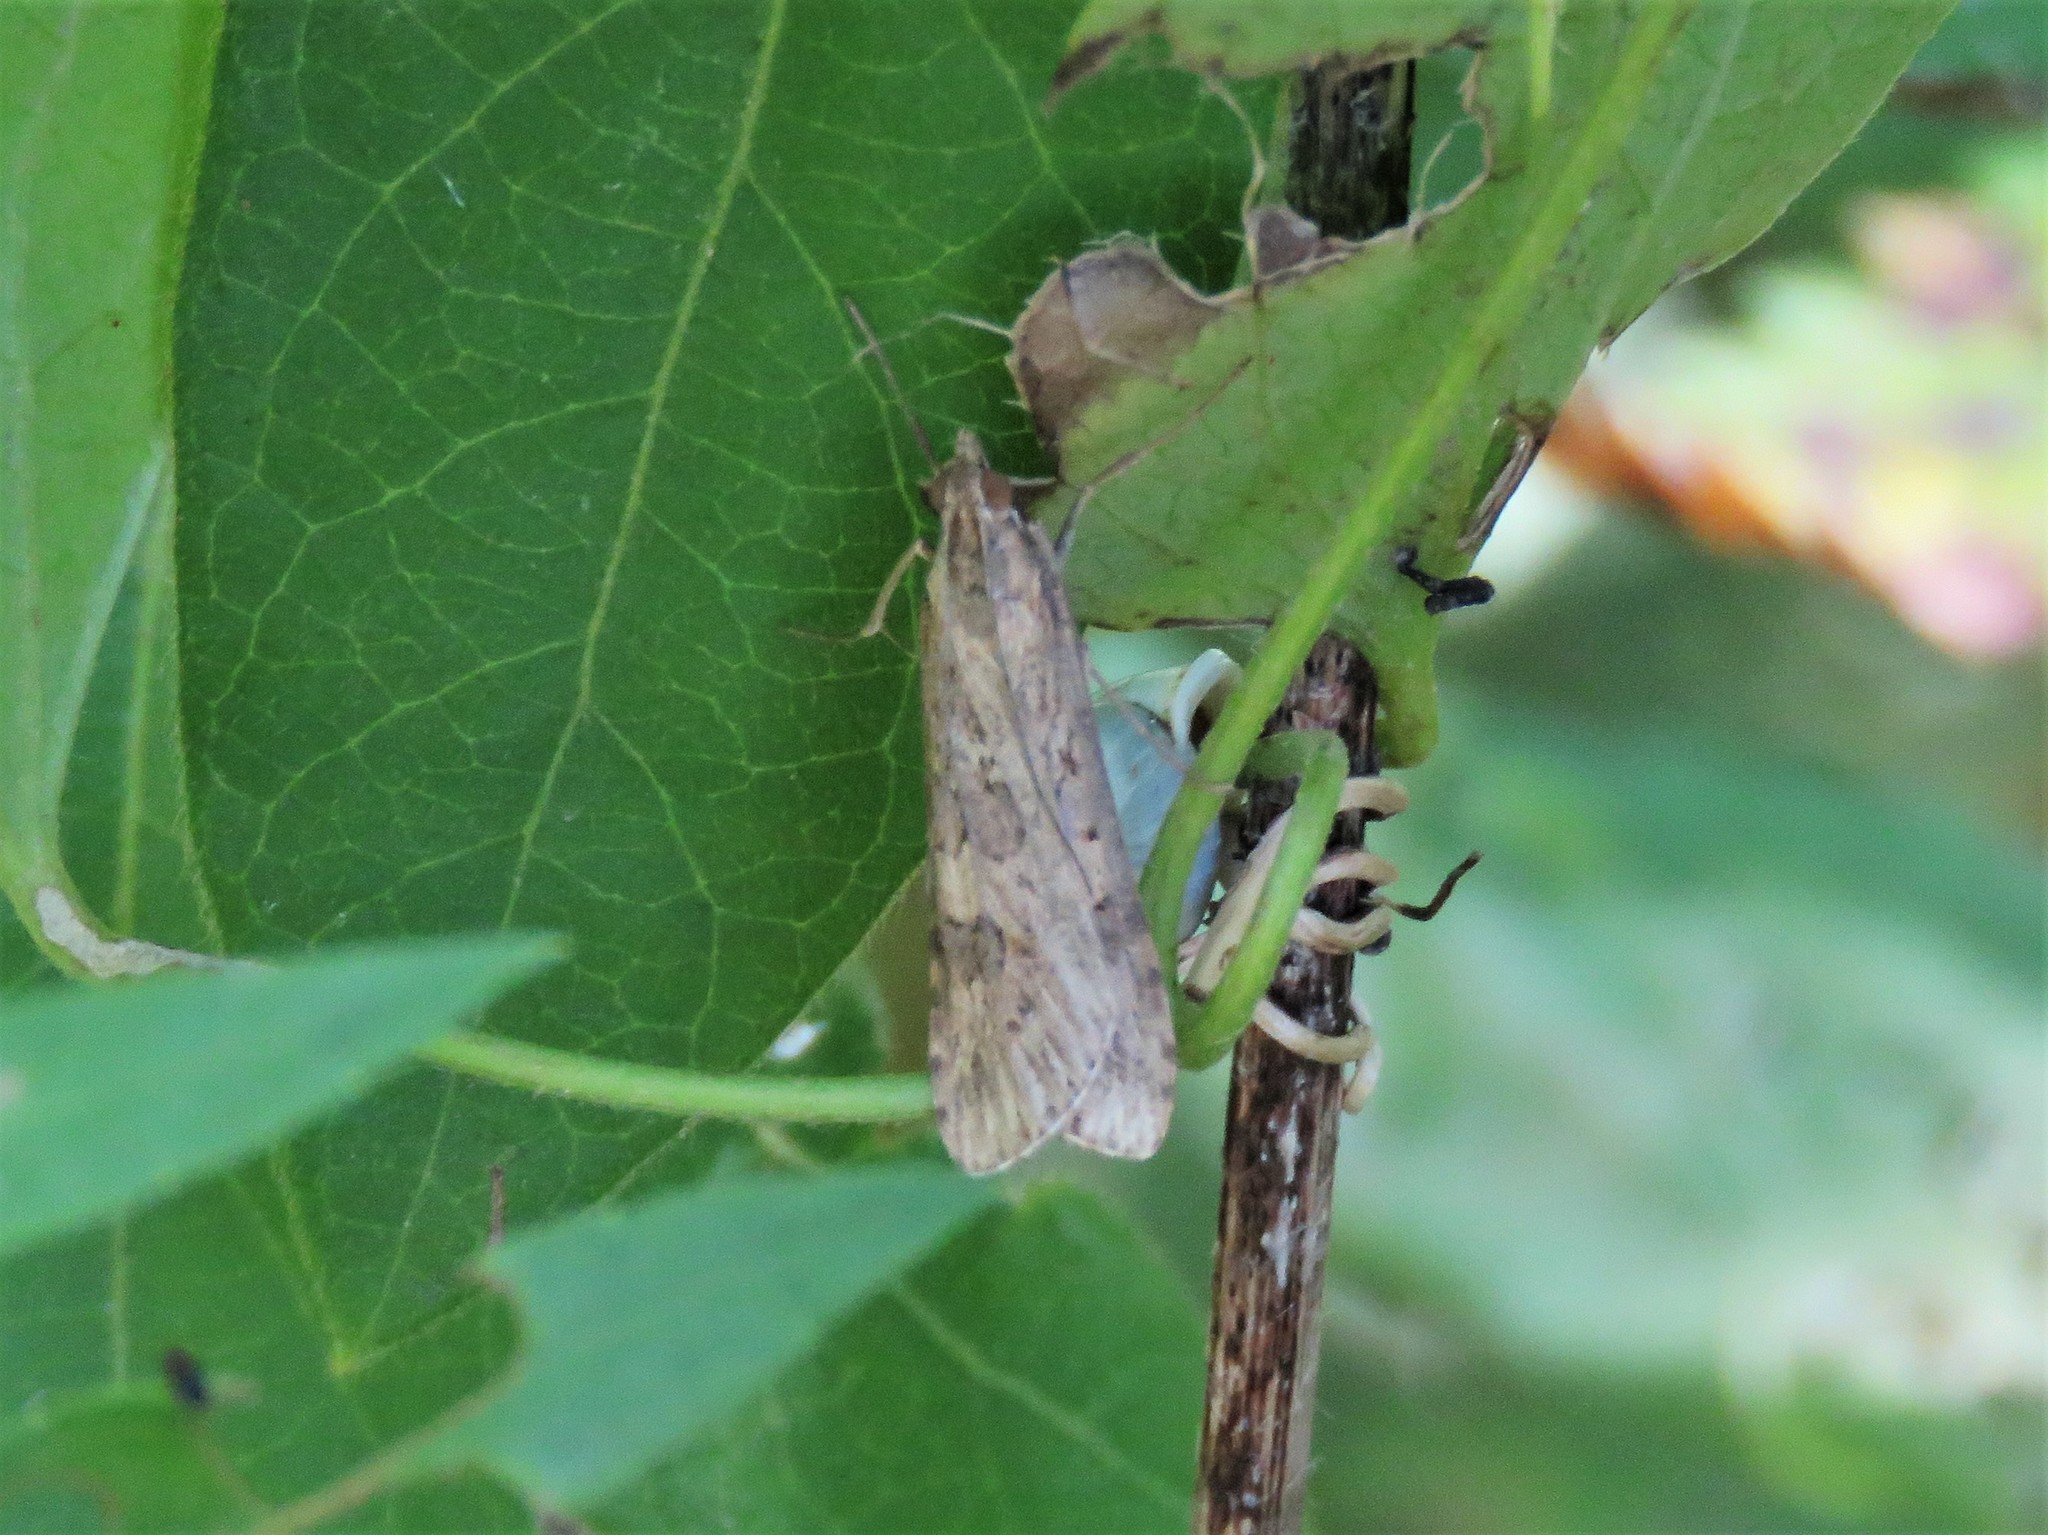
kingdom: Animalia
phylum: Arthropoda
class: Insecta
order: Lepidoptera
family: Crambidae
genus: Nomophila
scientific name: Nomophila nearctica
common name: American rush veneer
